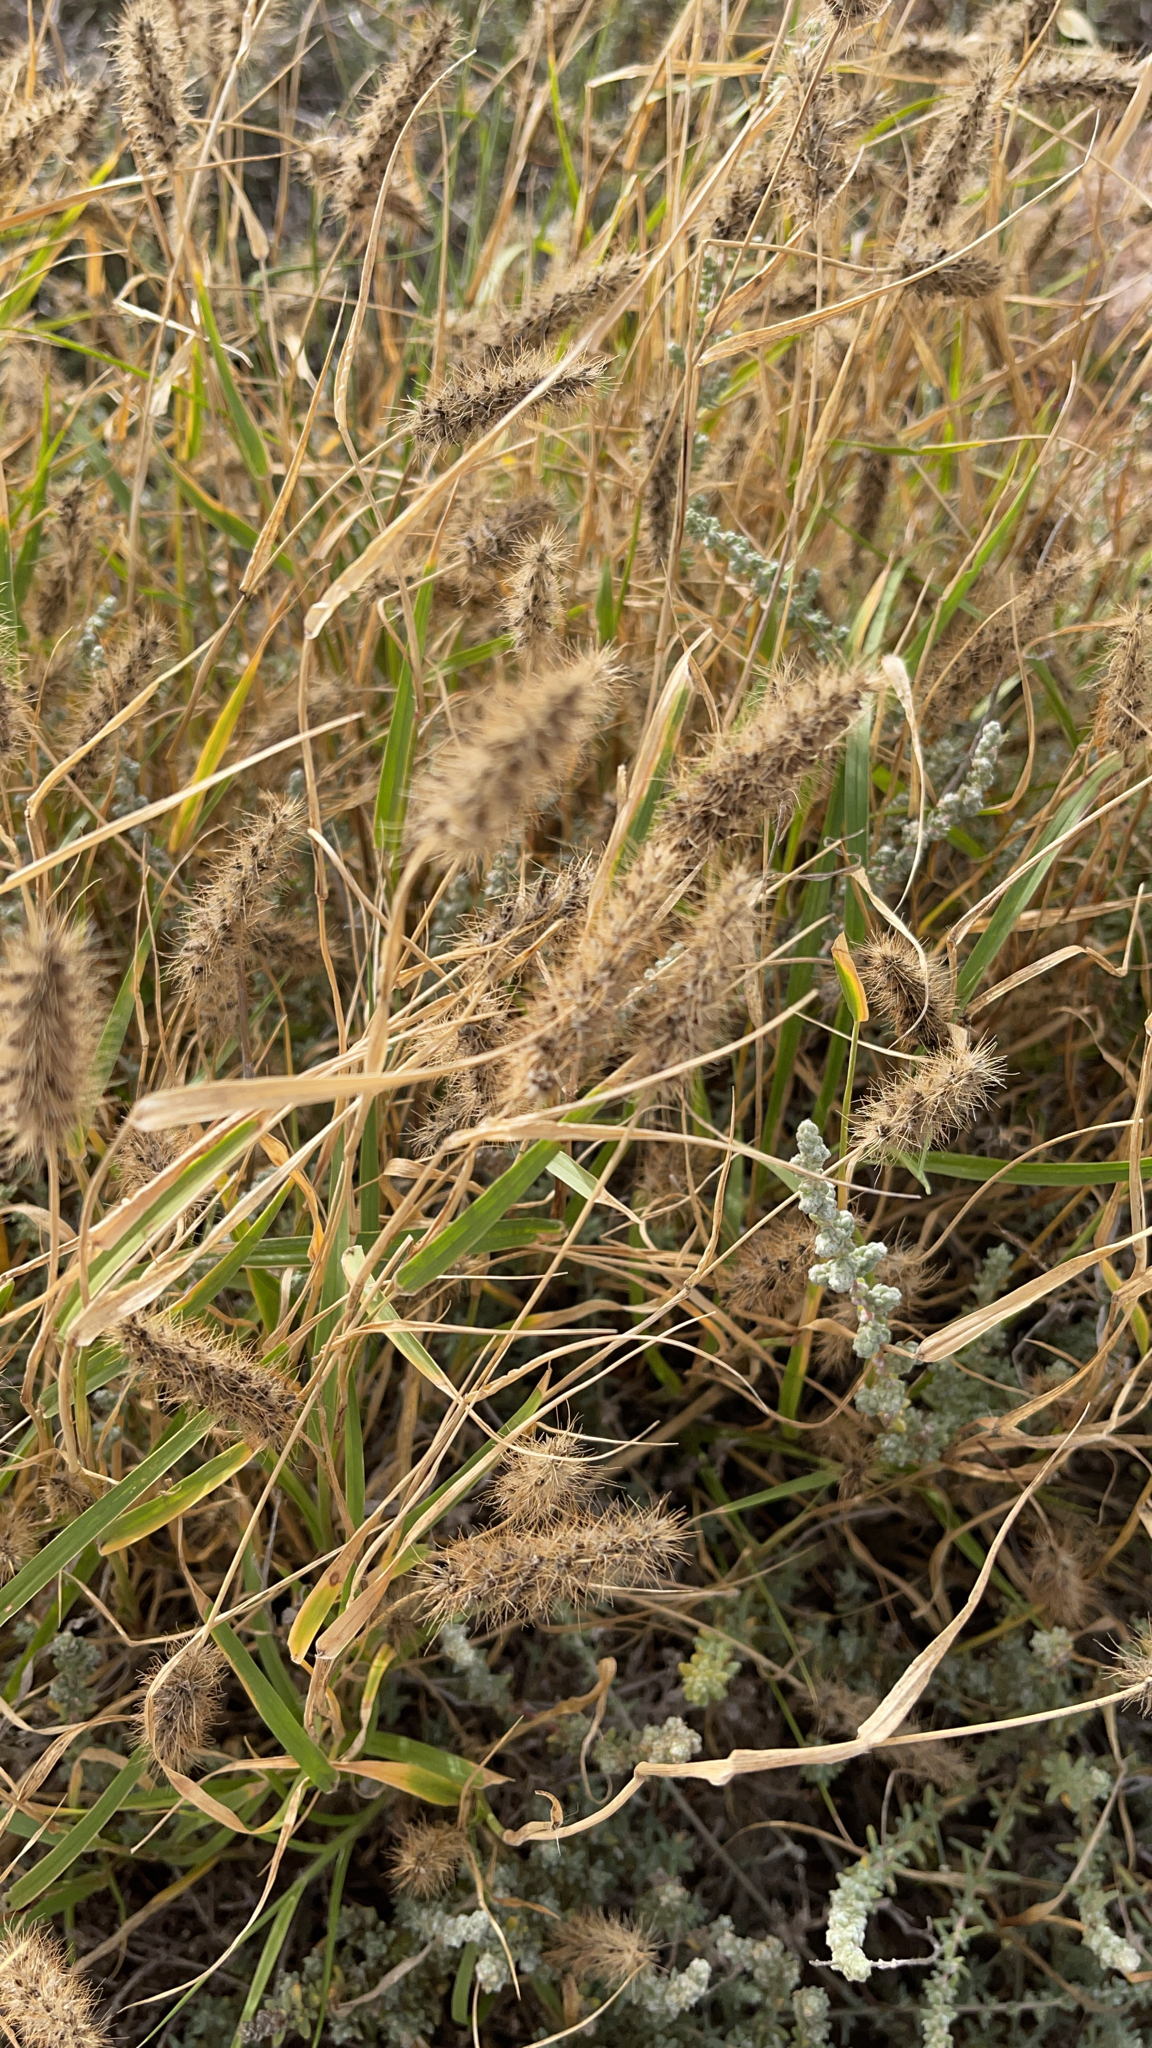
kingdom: Plantae
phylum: Tracheophyta
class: Liliopsida
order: Poales
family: Poaceae
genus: Cenchrus
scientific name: Cenchrus ciliaris
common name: Buffelgrass
